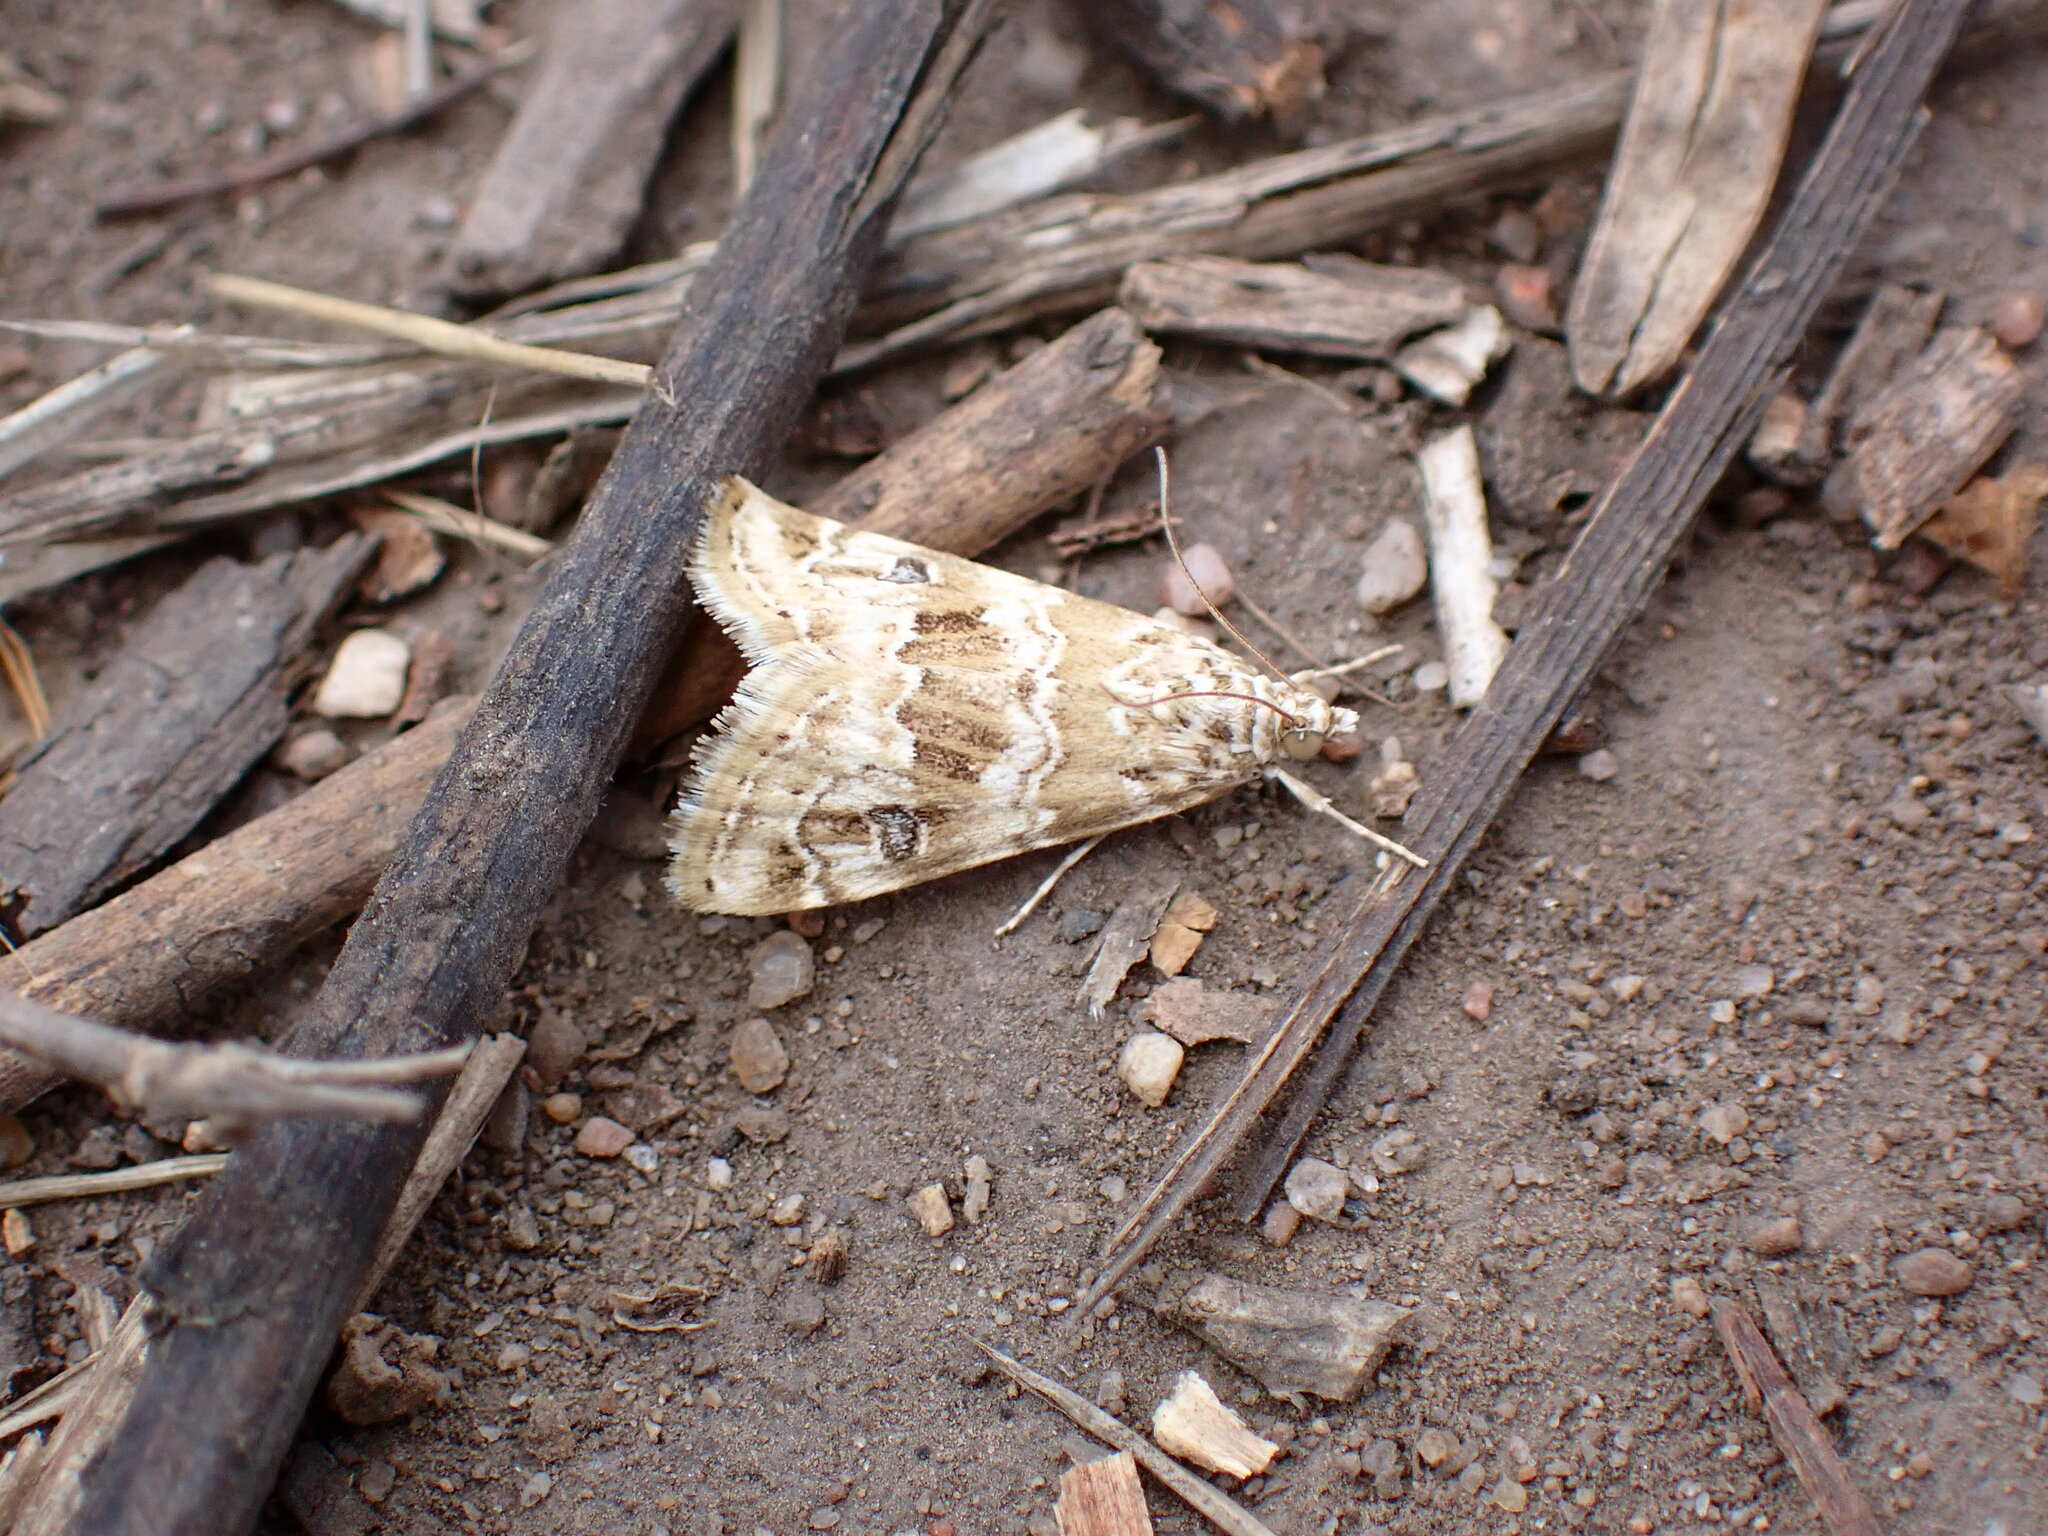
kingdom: Animalia
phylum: Arthropoda
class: Insecta
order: Lepidoptera
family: Crambidae
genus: Hellula
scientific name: Hellula rogatalis
